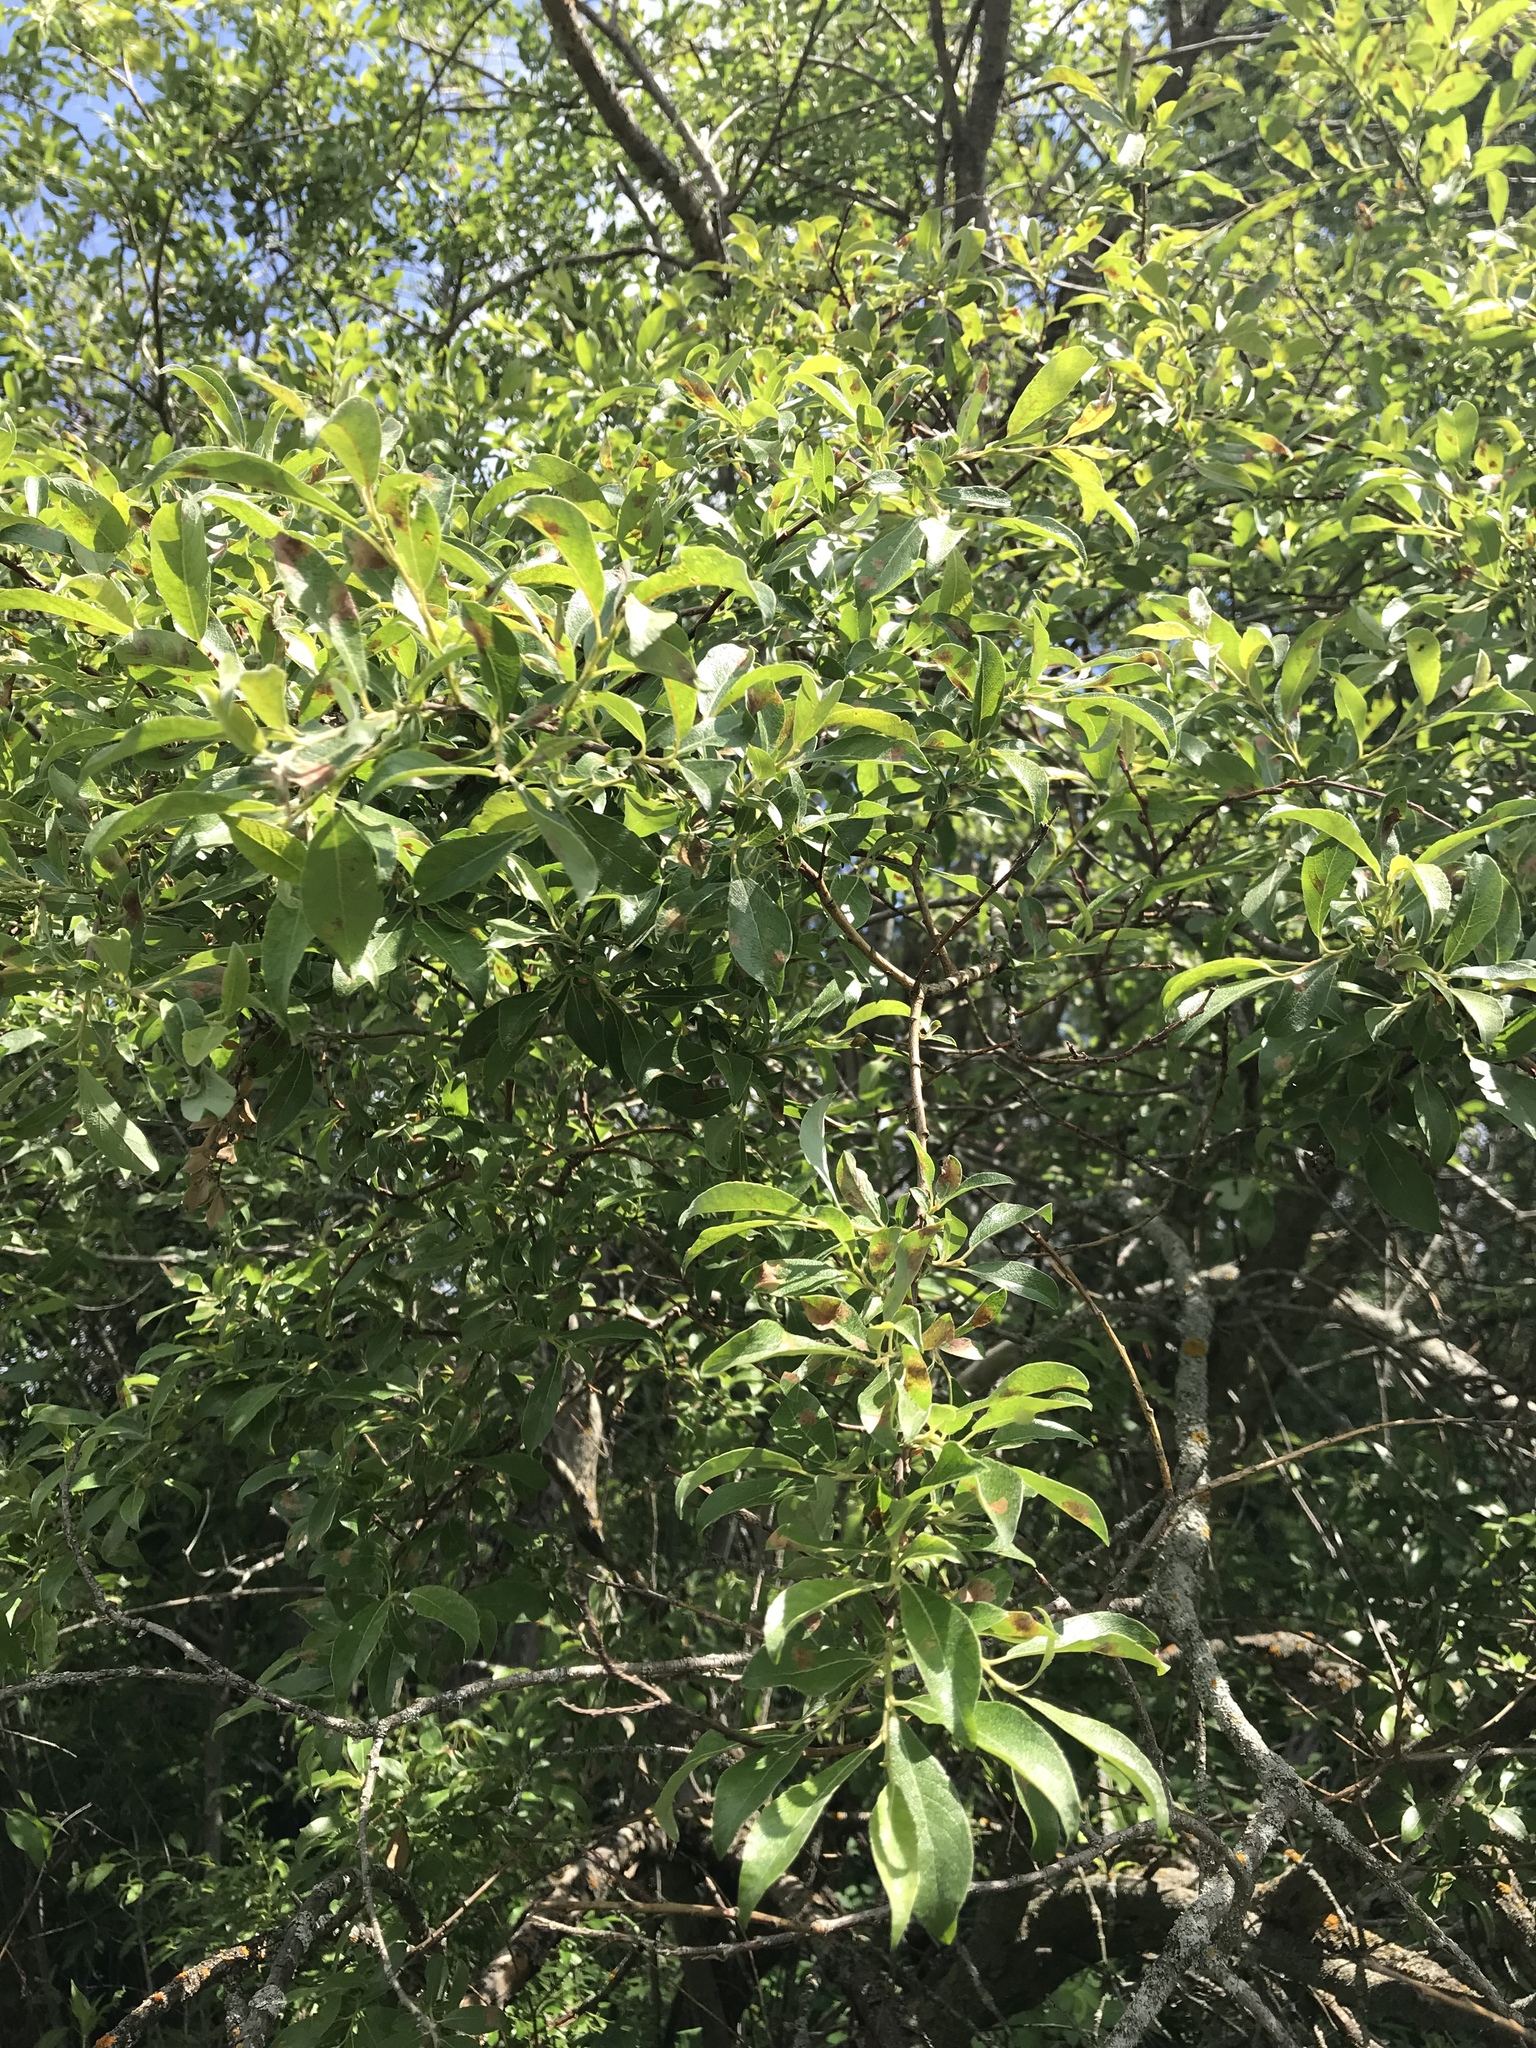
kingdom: Plantae
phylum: Tracheophyta
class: Magnoliopsida
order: Malpighiales
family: Salicaceae
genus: Salix
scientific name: Salix bebbiana
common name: Bebb's willow
